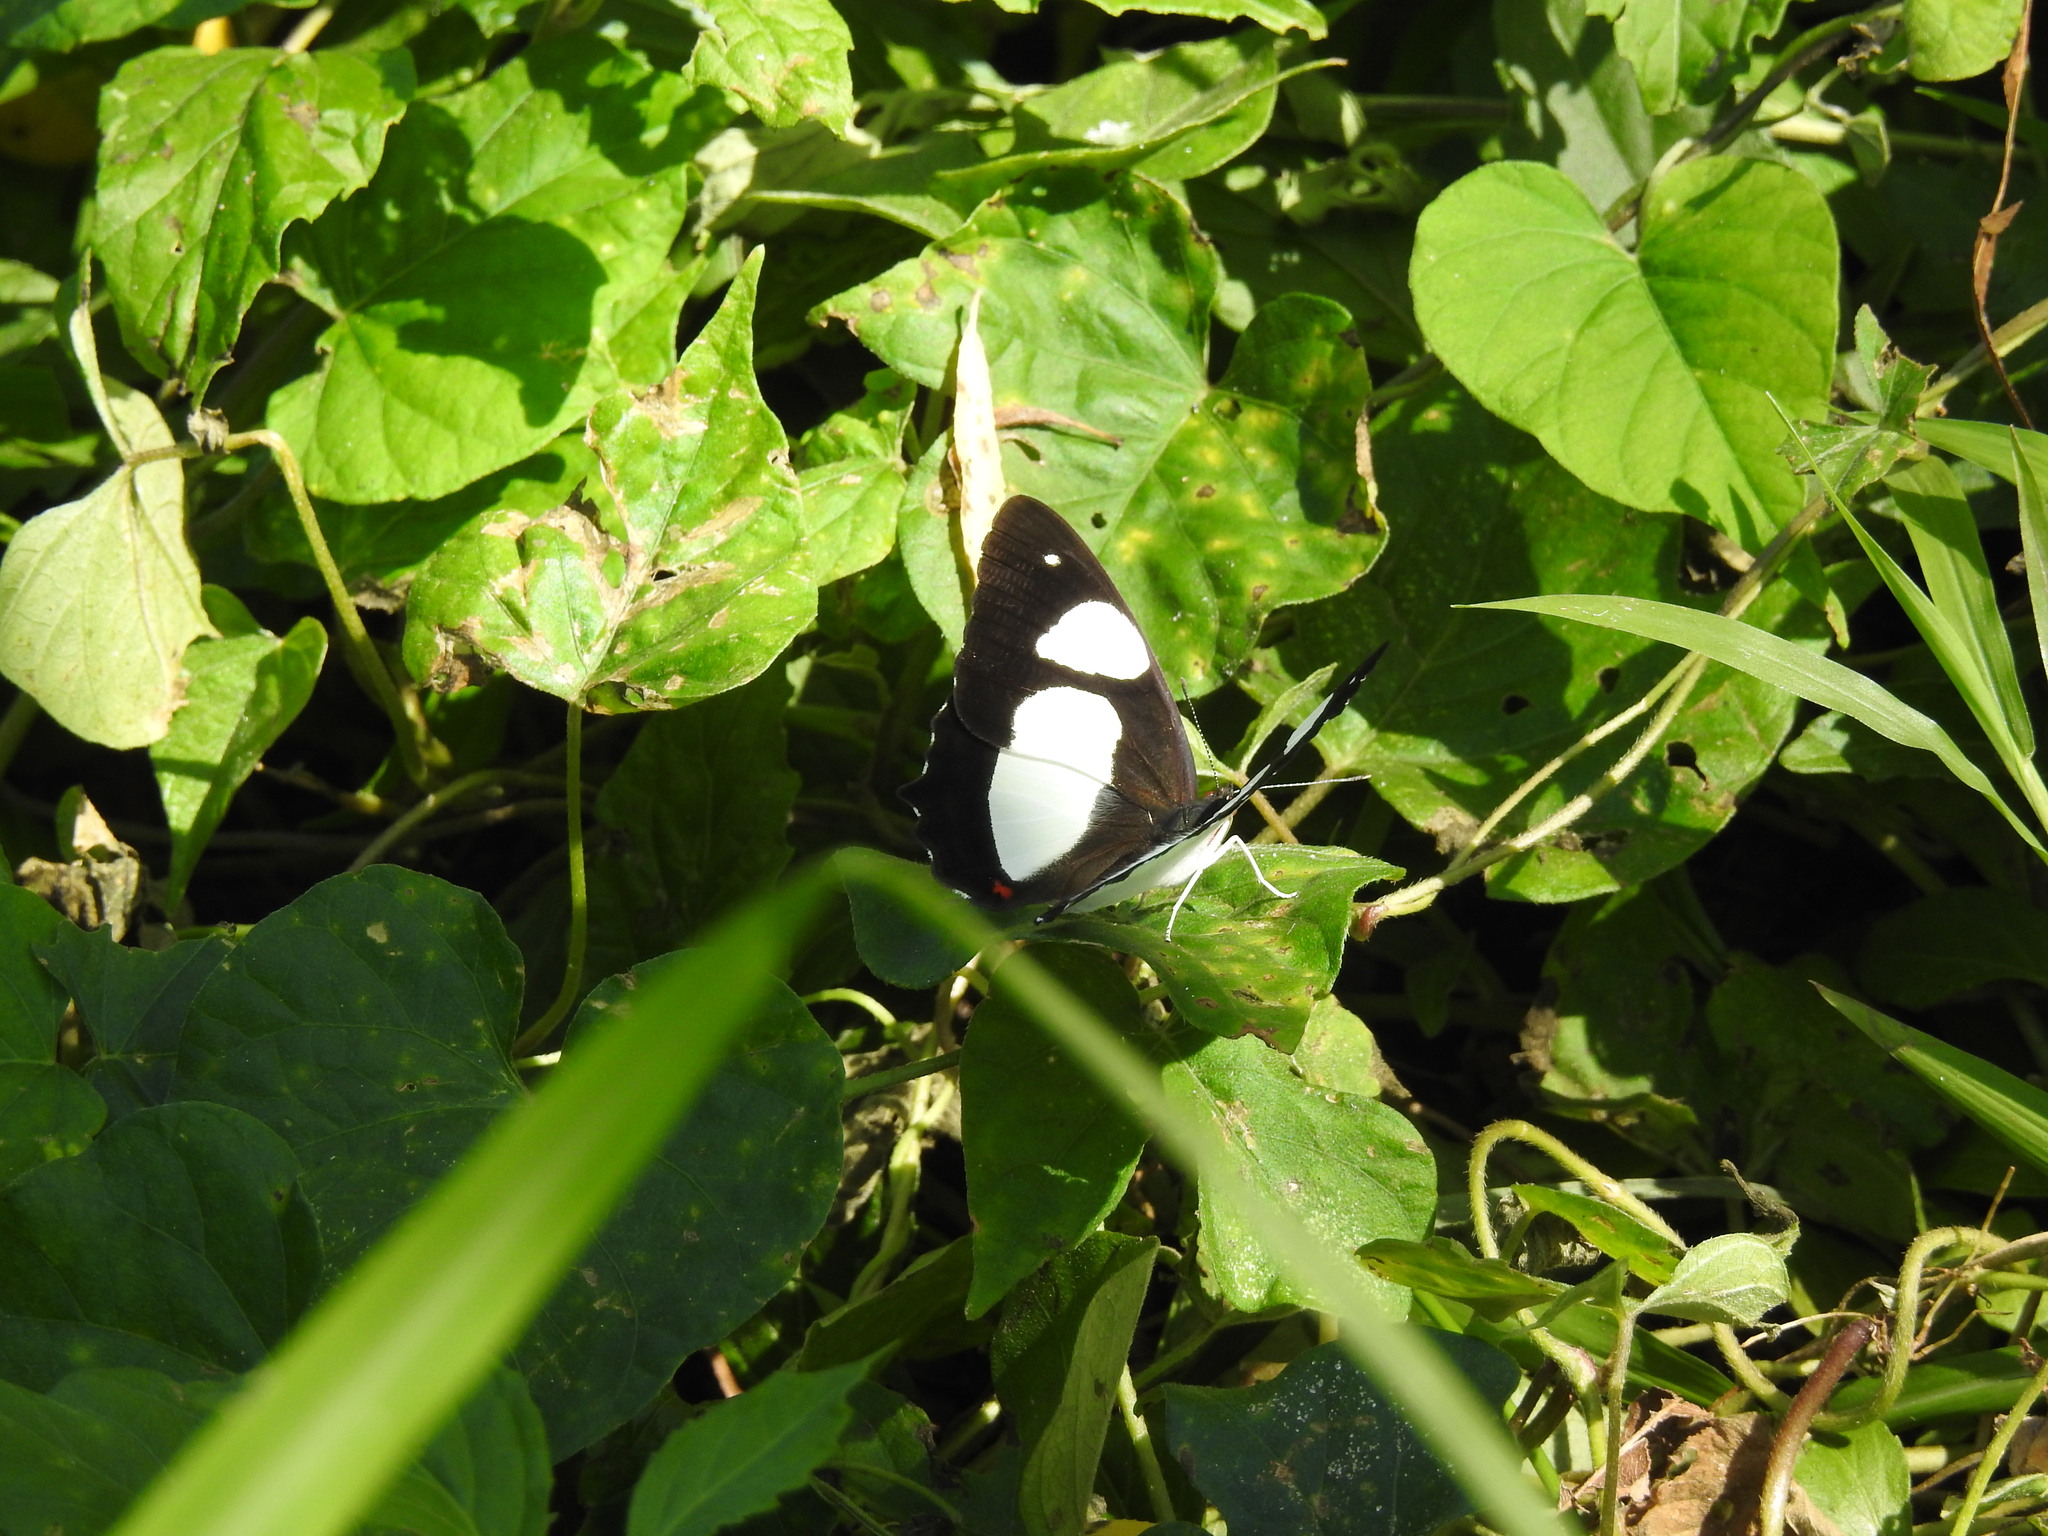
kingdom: Animalia
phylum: Arthropoda
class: Insecta
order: Lepidoptera
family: Nymphalidae
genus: Pyrrhogyra
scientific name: Pyrrhogyra neaerea
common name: Leading red-ring
